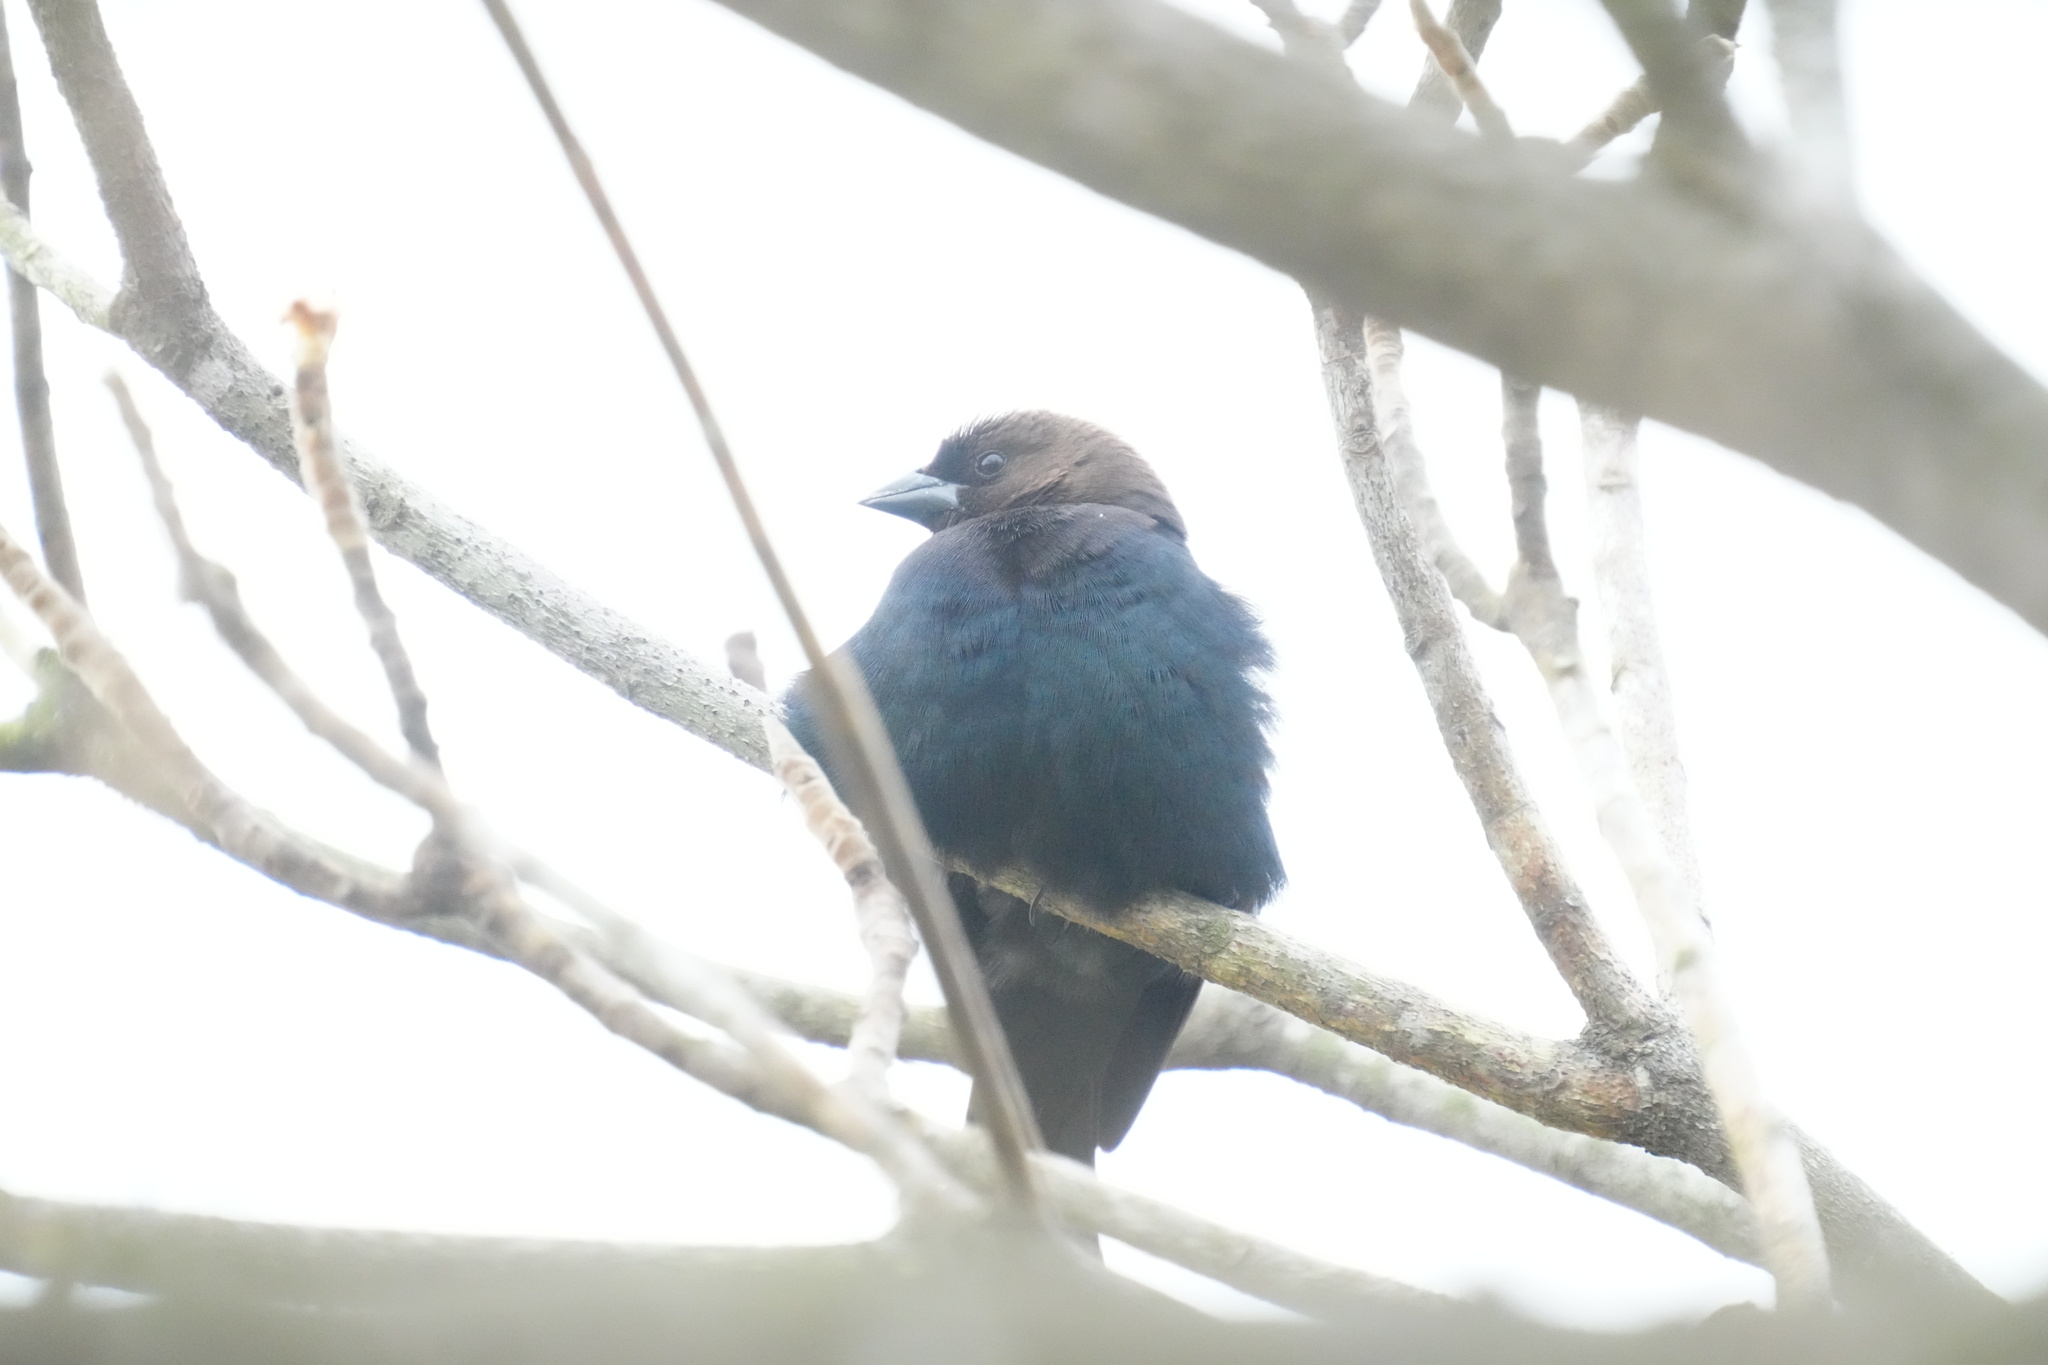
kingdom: Animalia
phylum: Chordata
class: Aves
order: Passeriformes
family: Icteridae
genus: Molothrus
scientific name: Molothrus ater
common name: Brown-headed cowbird
